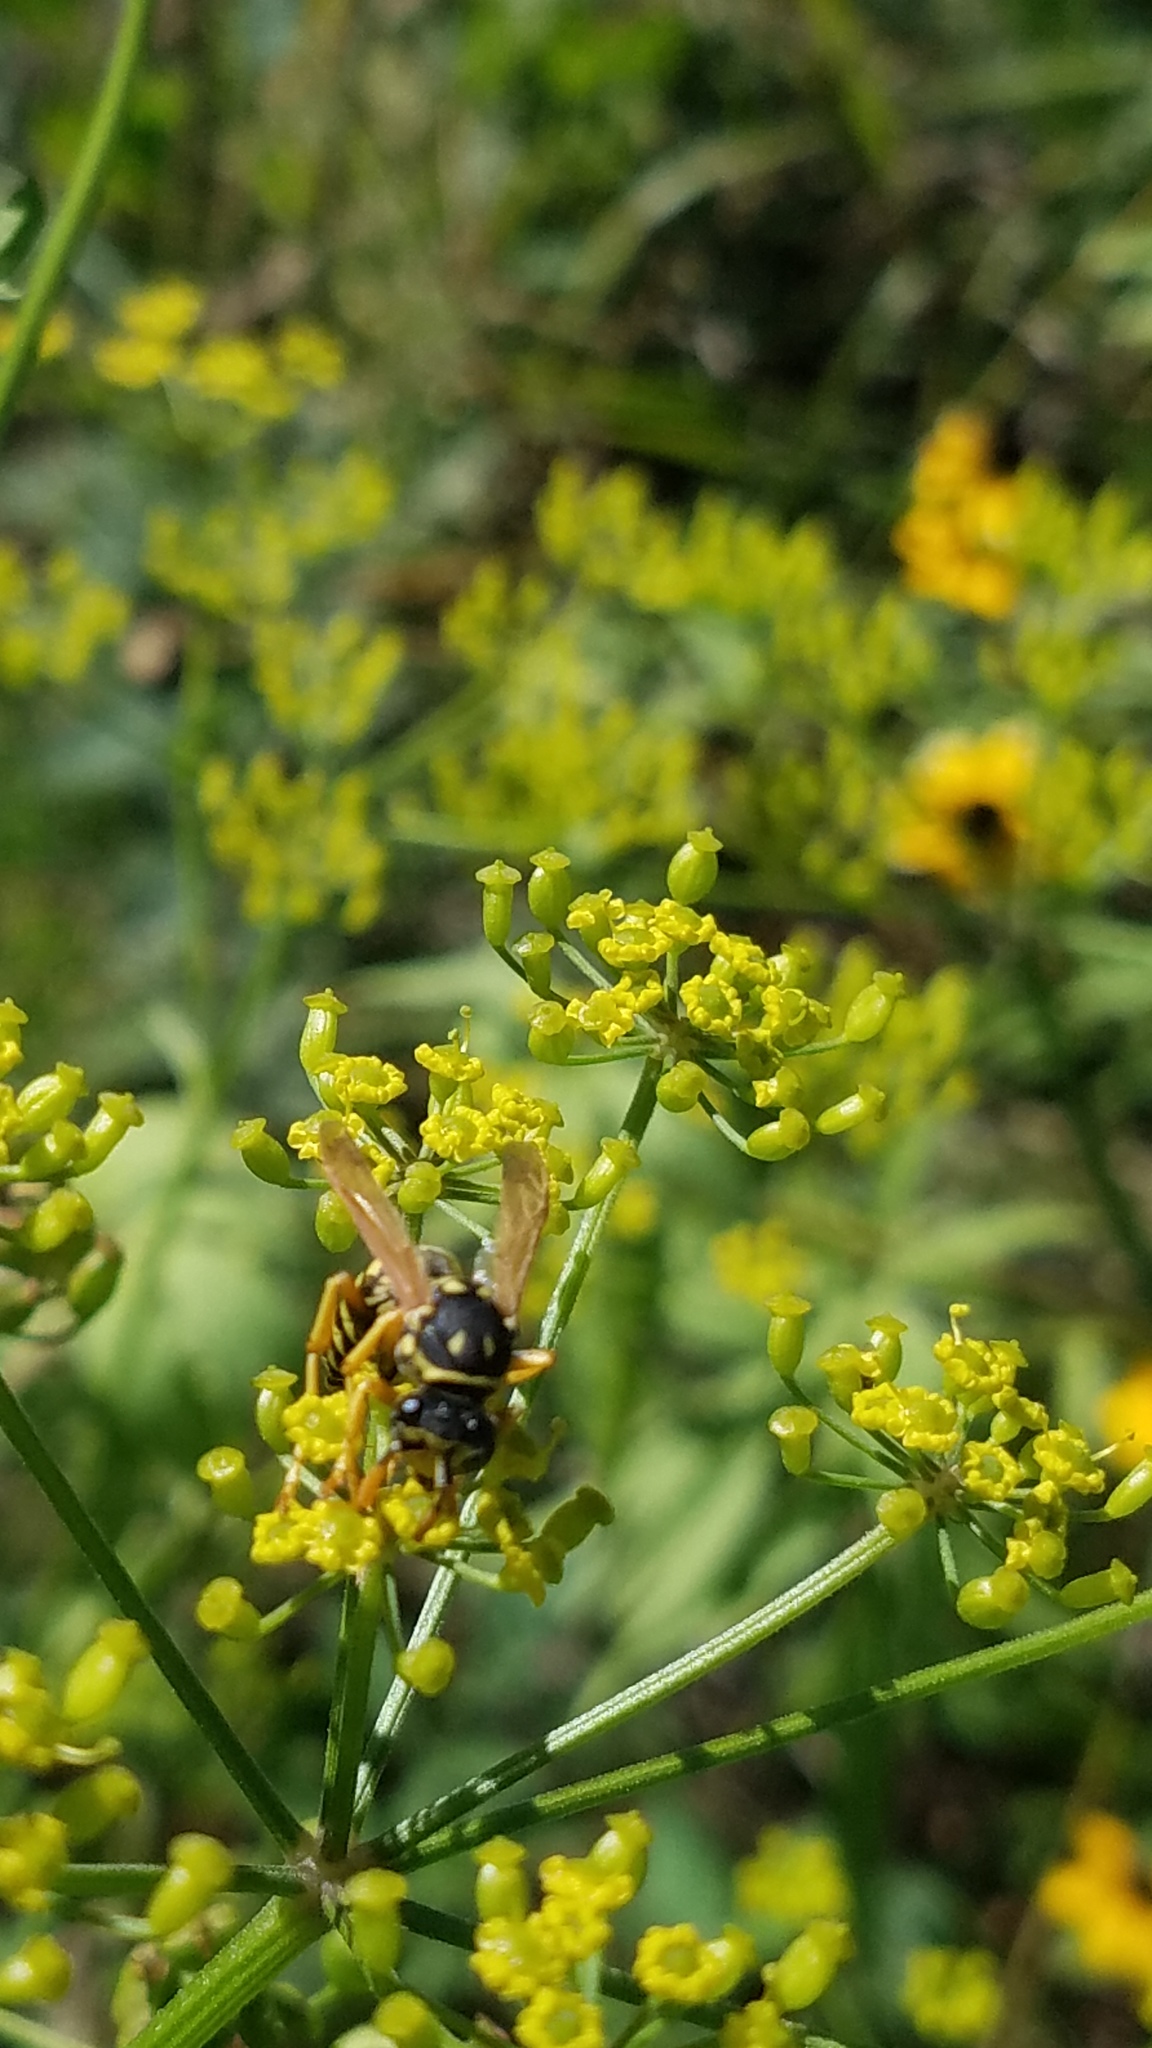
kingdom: Animalia
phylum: Arthropoda
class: Insecta
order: Hymenoptera
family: Eumenidae
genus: Polistes
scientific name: Polistes dominula
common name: Paper wasp
